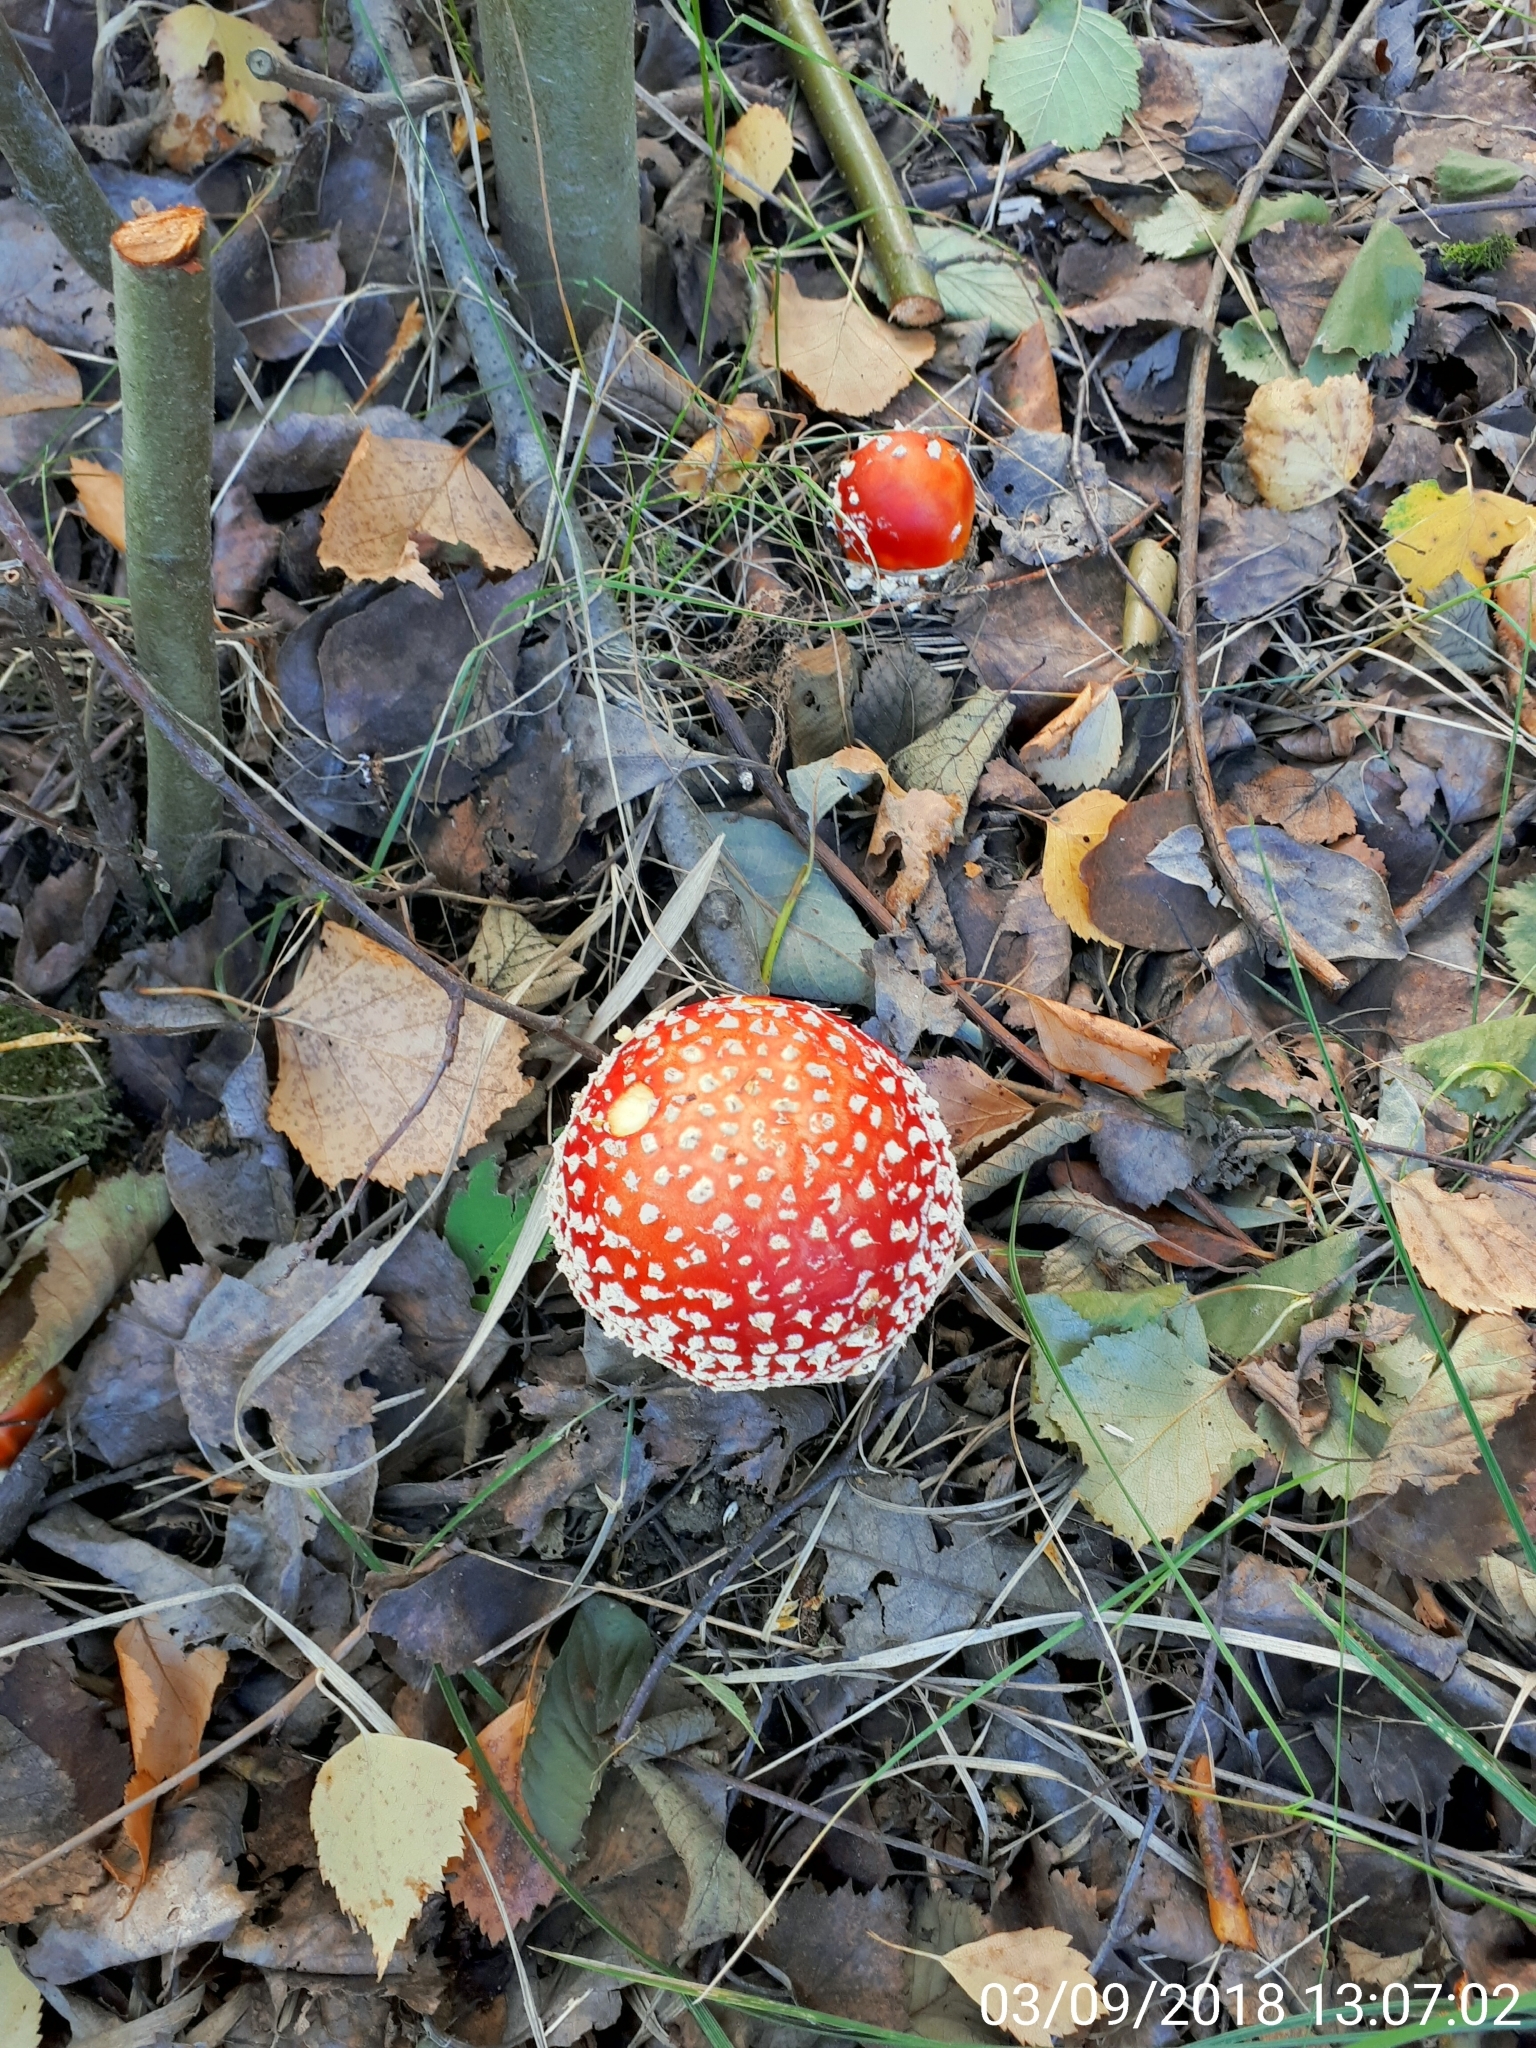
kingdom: Fungi
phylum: Basidiomycota
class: Agaricomycetes
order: Agaricales
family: Amanitaceae
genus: Amanita
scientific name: Amanita muscaria
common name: Fly agaric
